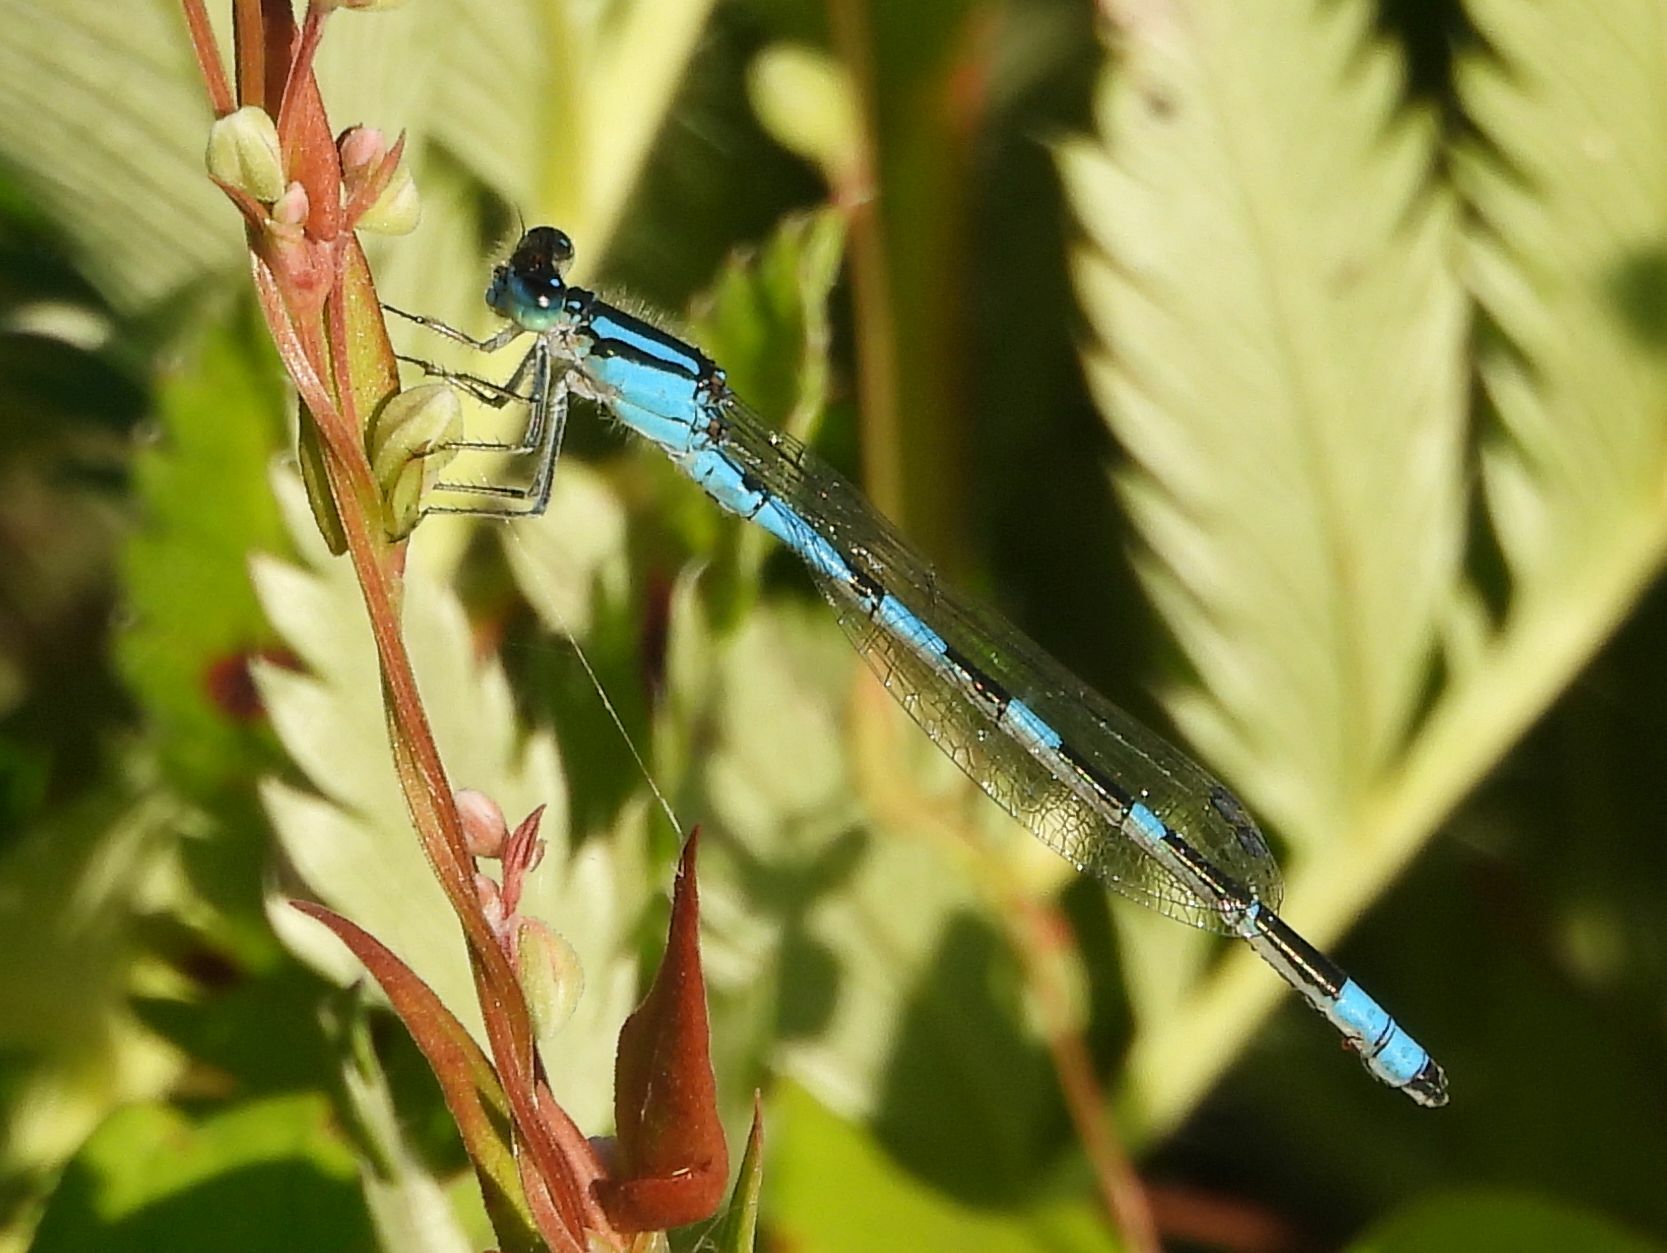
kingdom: Animalia
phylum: Arthropoda
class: Insecta
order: Odonata
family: Coenagrionidae
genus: Enallagma
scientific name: Enallagma carunculatum
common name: Tule bluet
